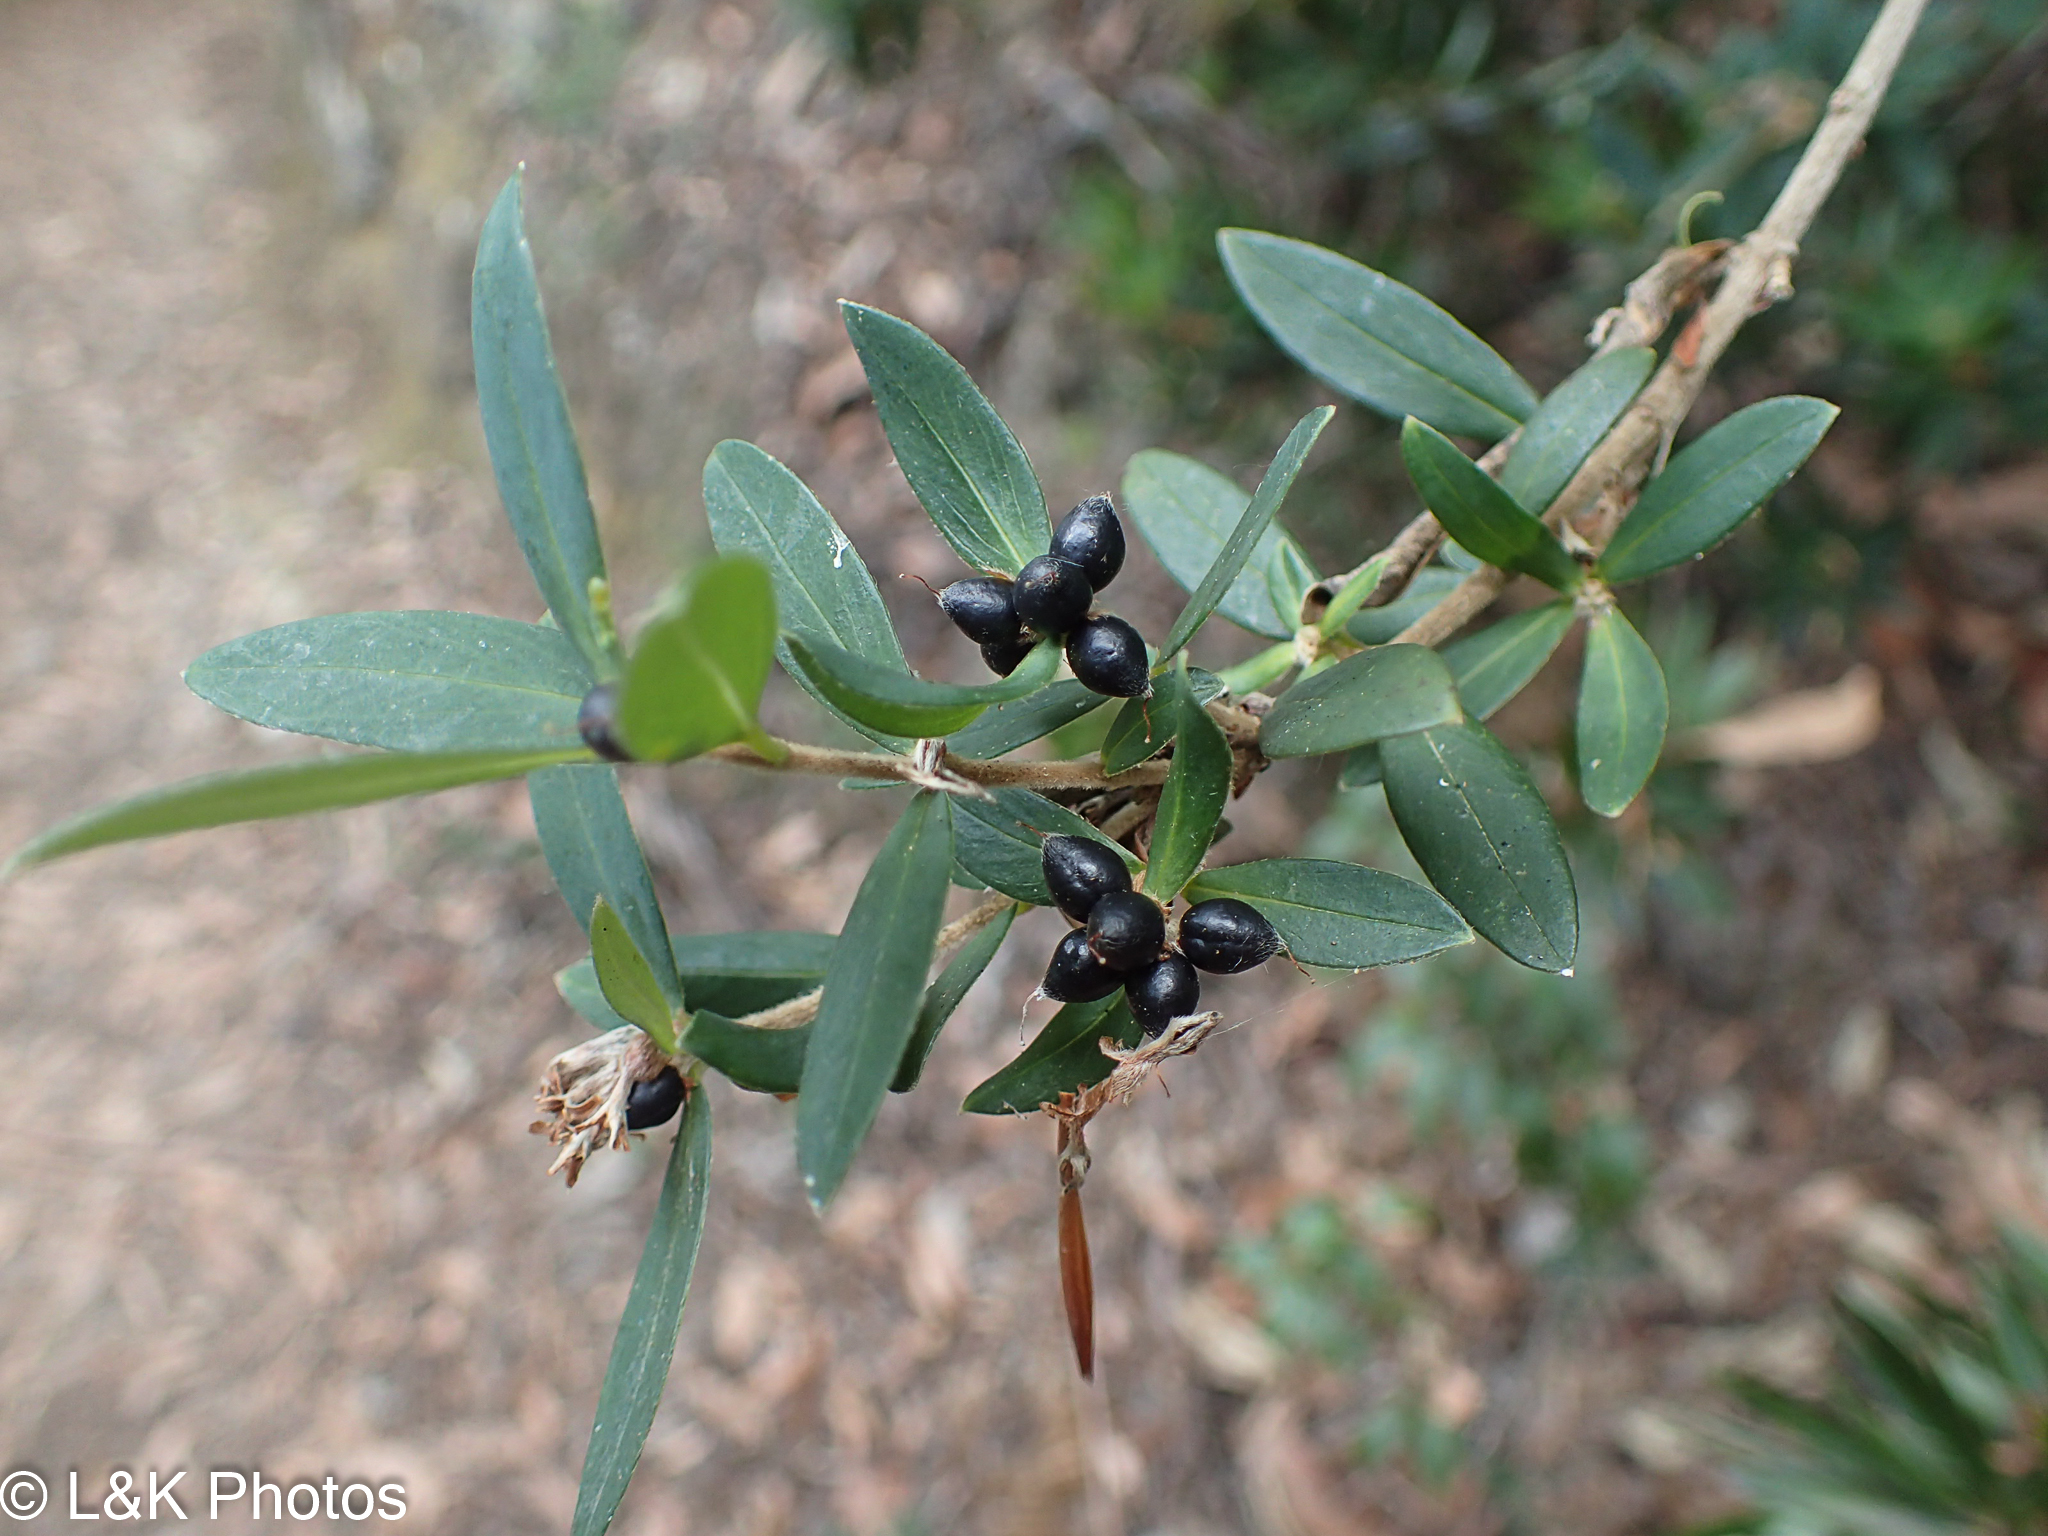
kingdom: Plantae
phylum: Tracheophyta
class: Magnoliopsida
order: Malvales
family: Thymelaeaceae
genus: Pimelea
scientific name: Pimelea drupacea
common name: Cherry riceflower
